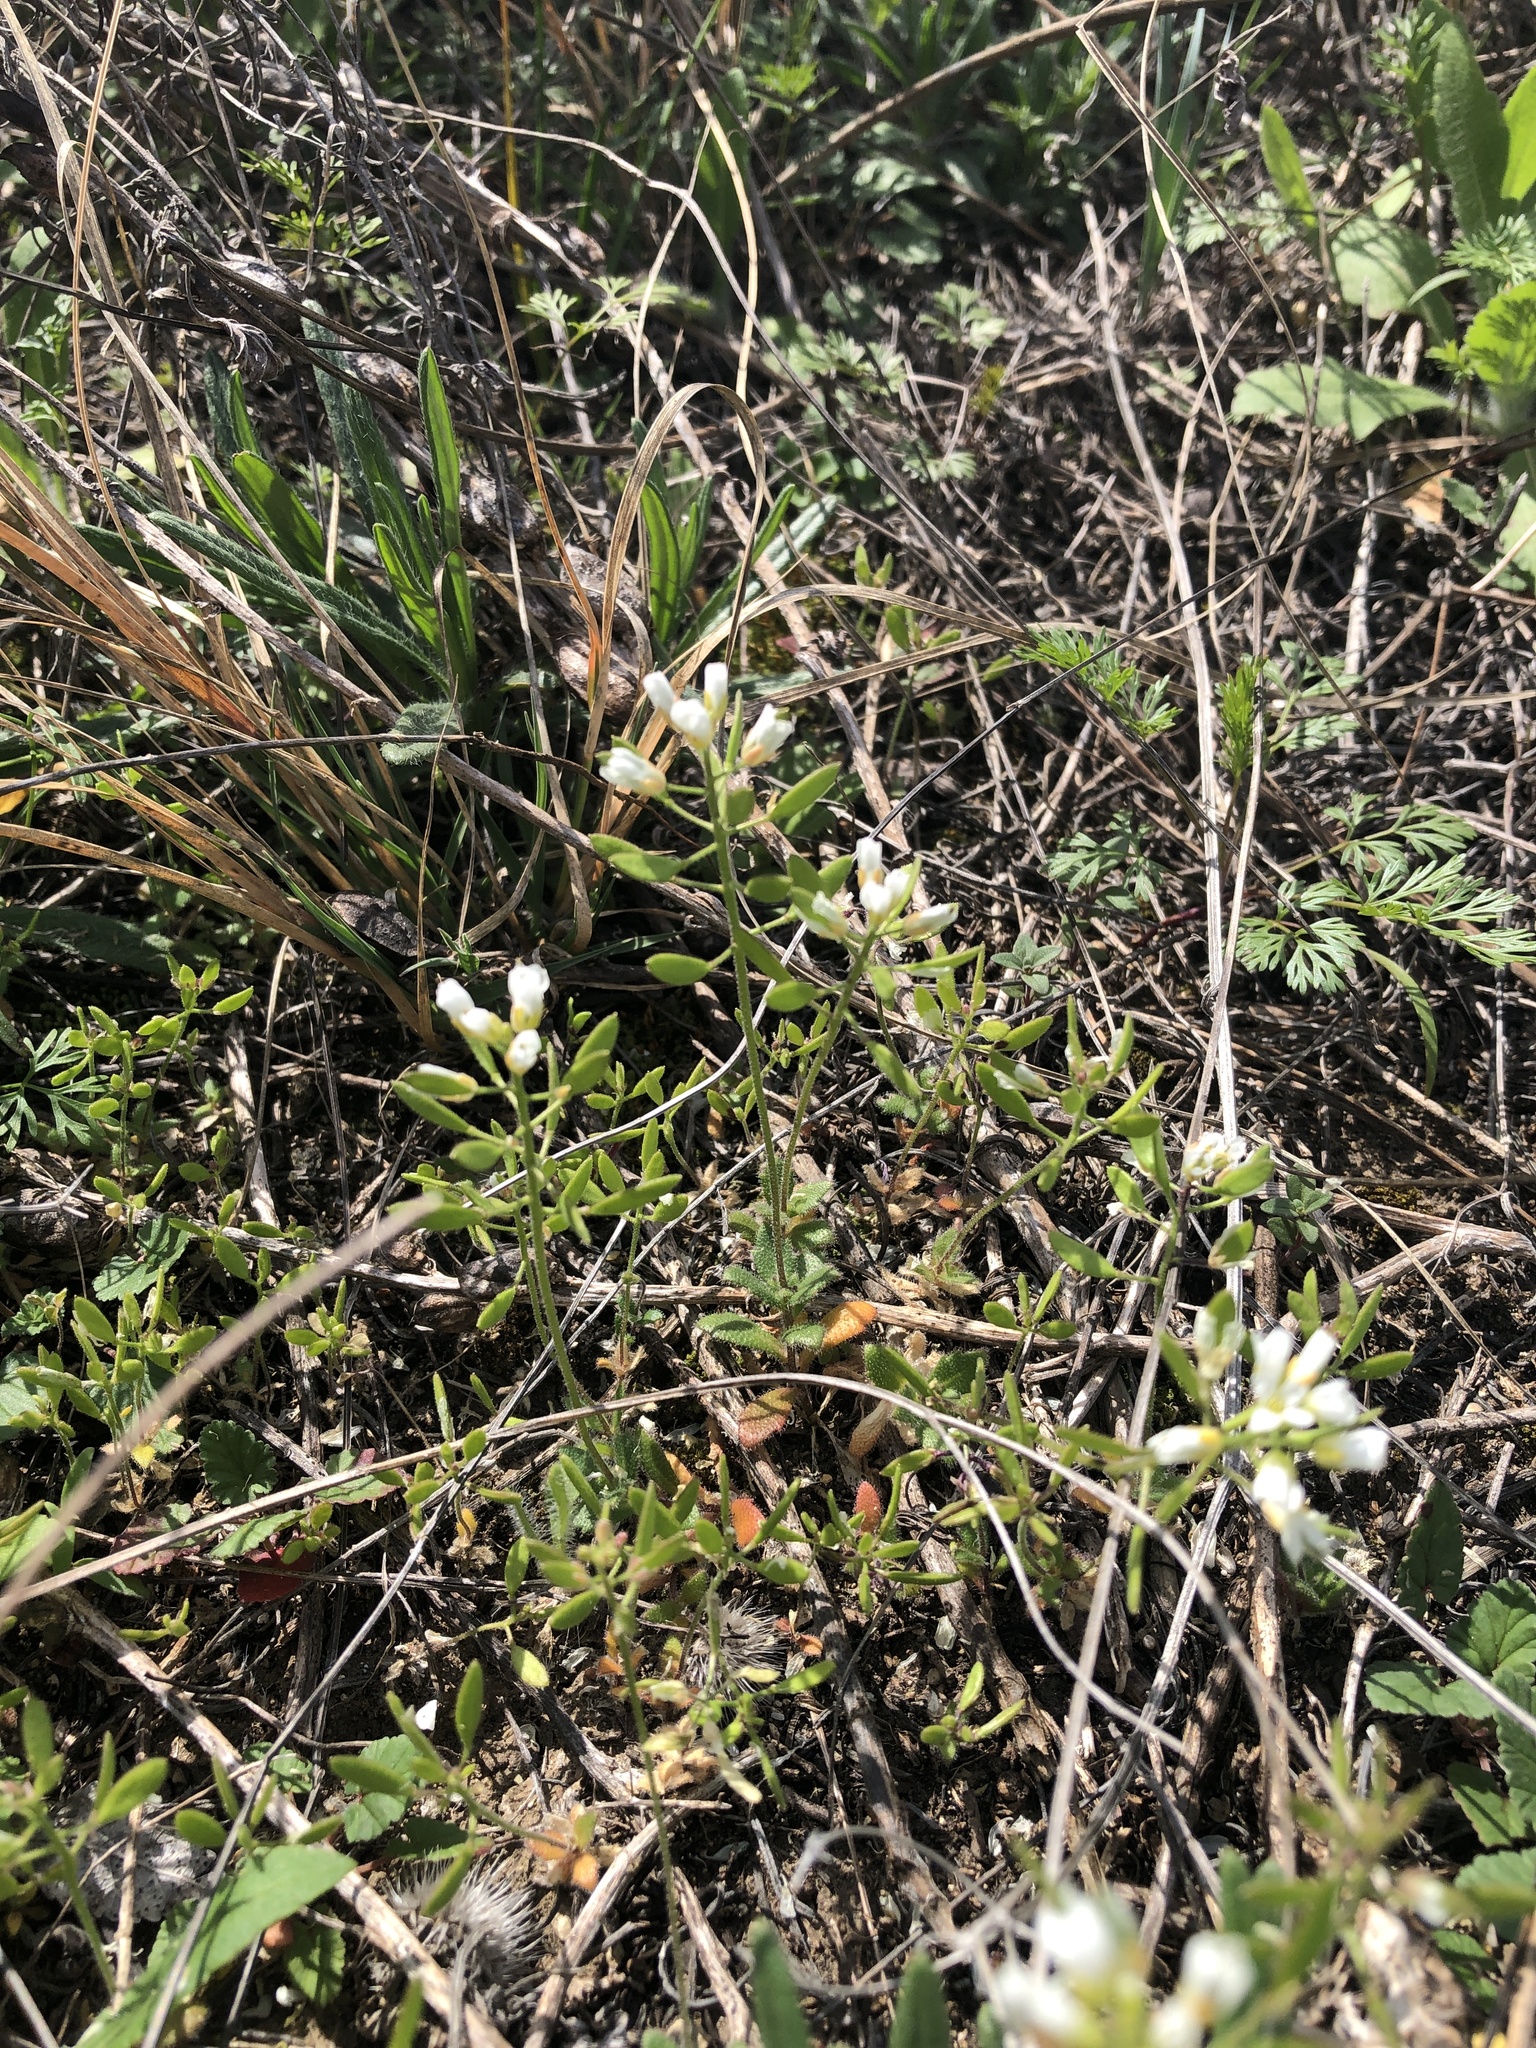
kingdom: Plantae
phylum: Tracheophyta
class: Magnoliopsida
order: Brassicales
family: Brassicaceae
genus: Tomostima
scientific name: Tomostima cuneifolia
